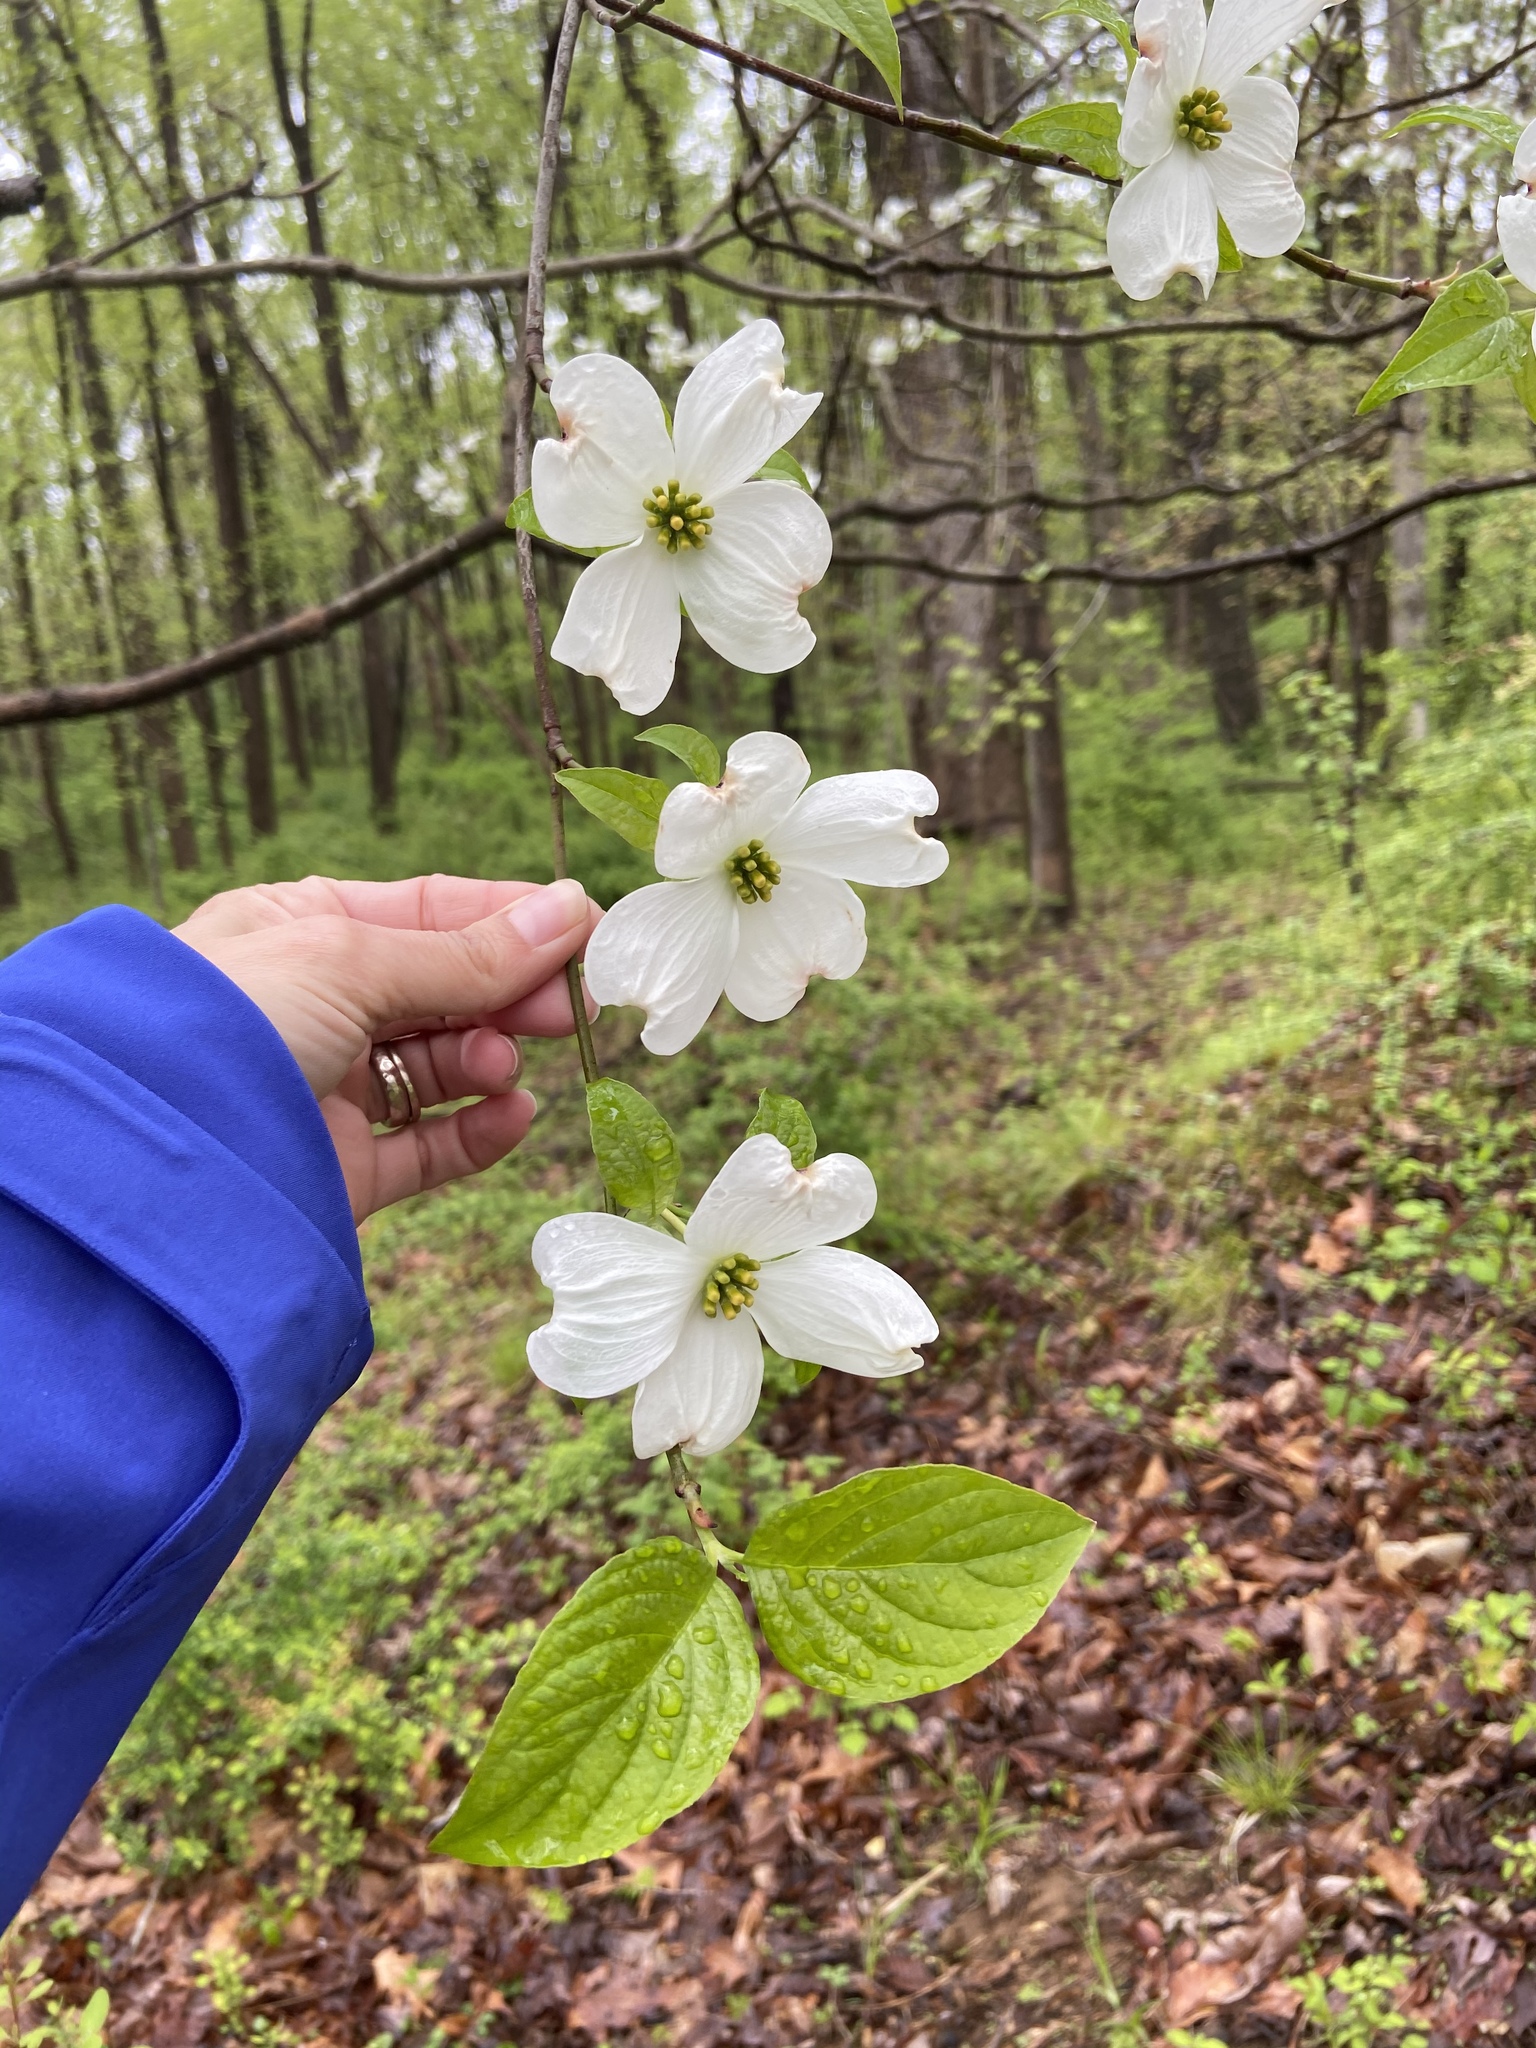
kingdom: Plantae
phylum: Tracheophyta
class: Magnoliopsida
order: Cornales
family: Cornaceae
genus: Cornus
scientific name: Cornus florida
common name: Flowering dogwood
